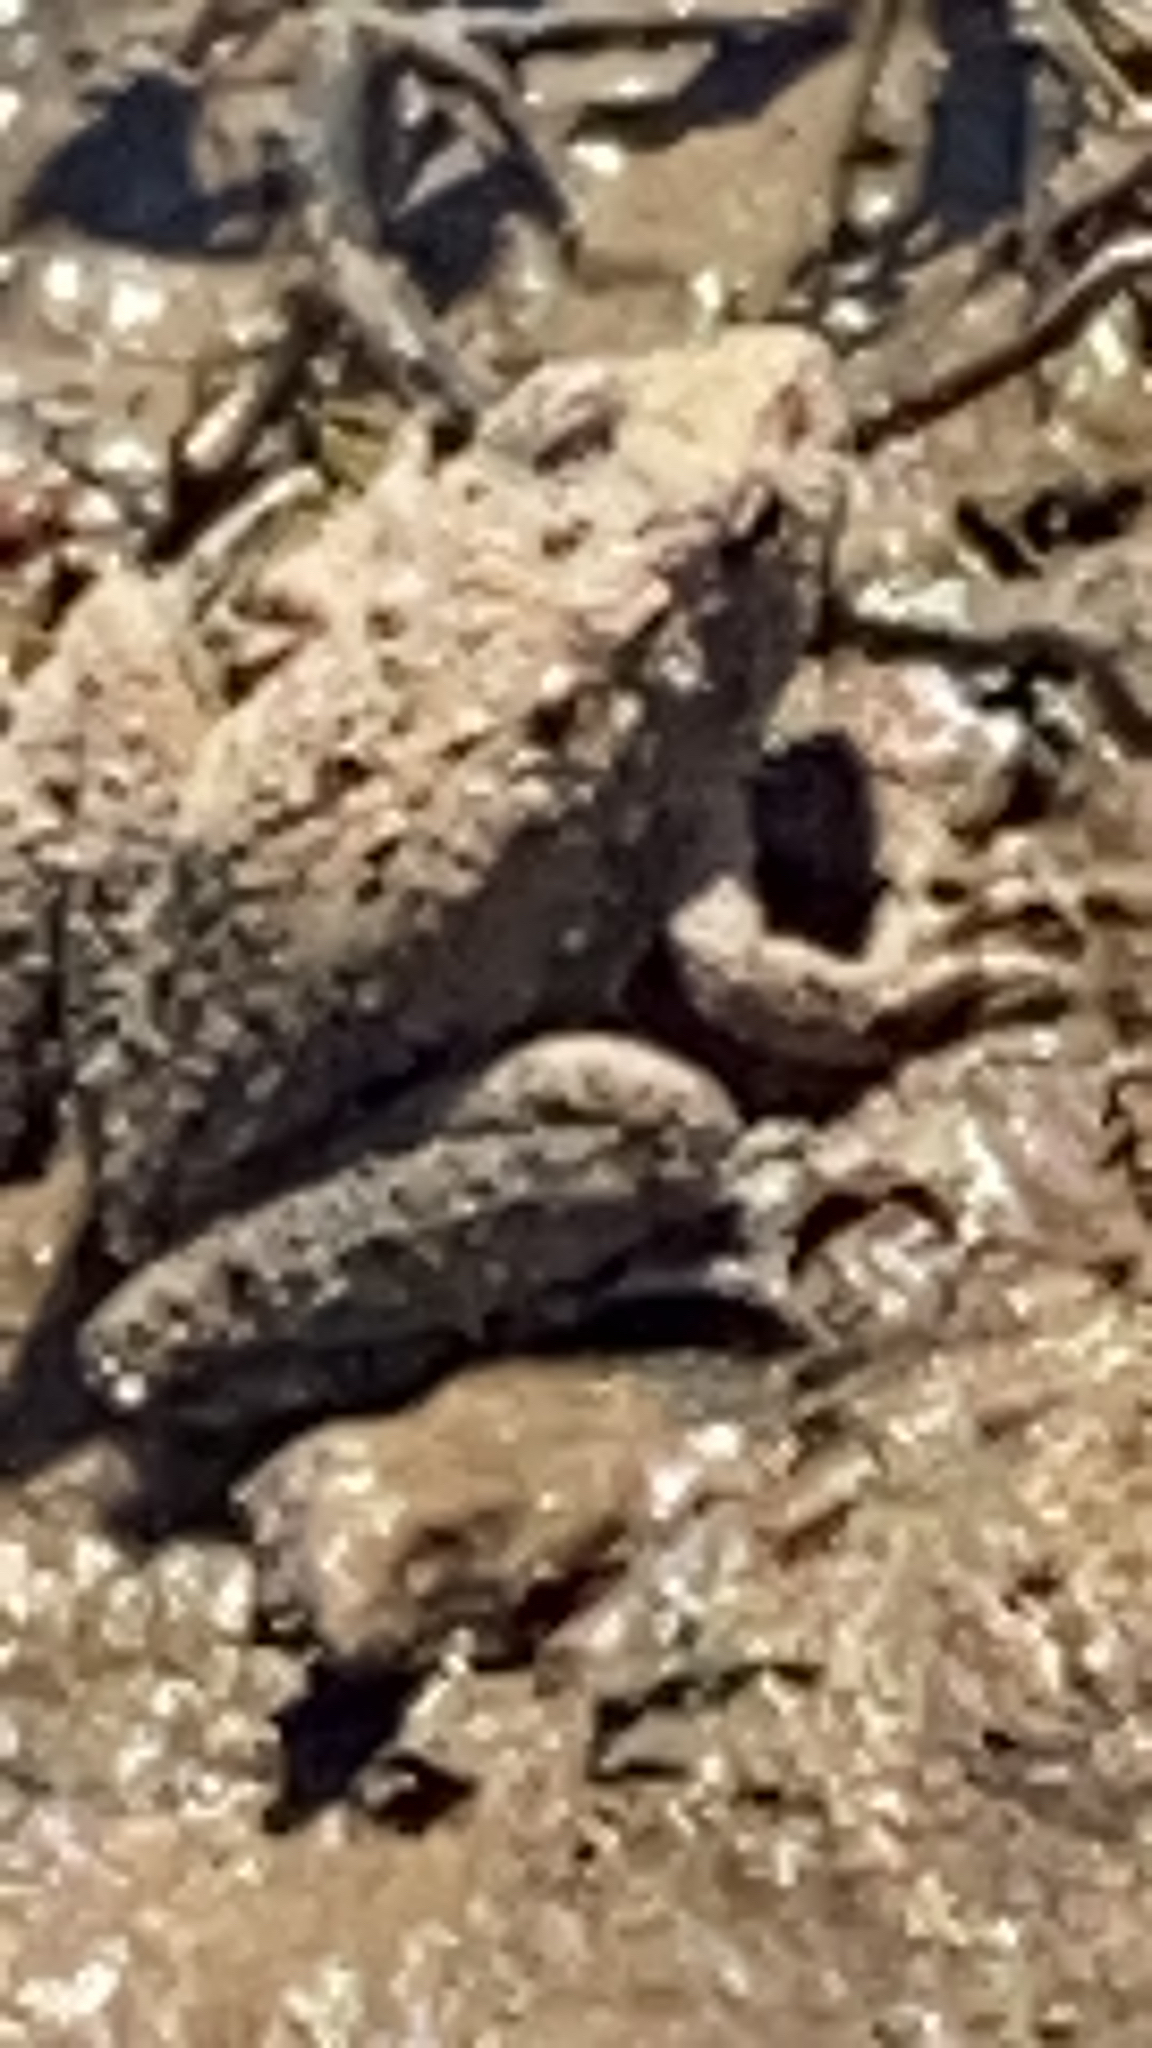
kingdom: Animalia
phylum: Chordata
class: Amphibia
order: Anura
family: Hylidae
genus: Acris
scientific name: Acris blanchardi
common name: Blanchard's cricket frog
